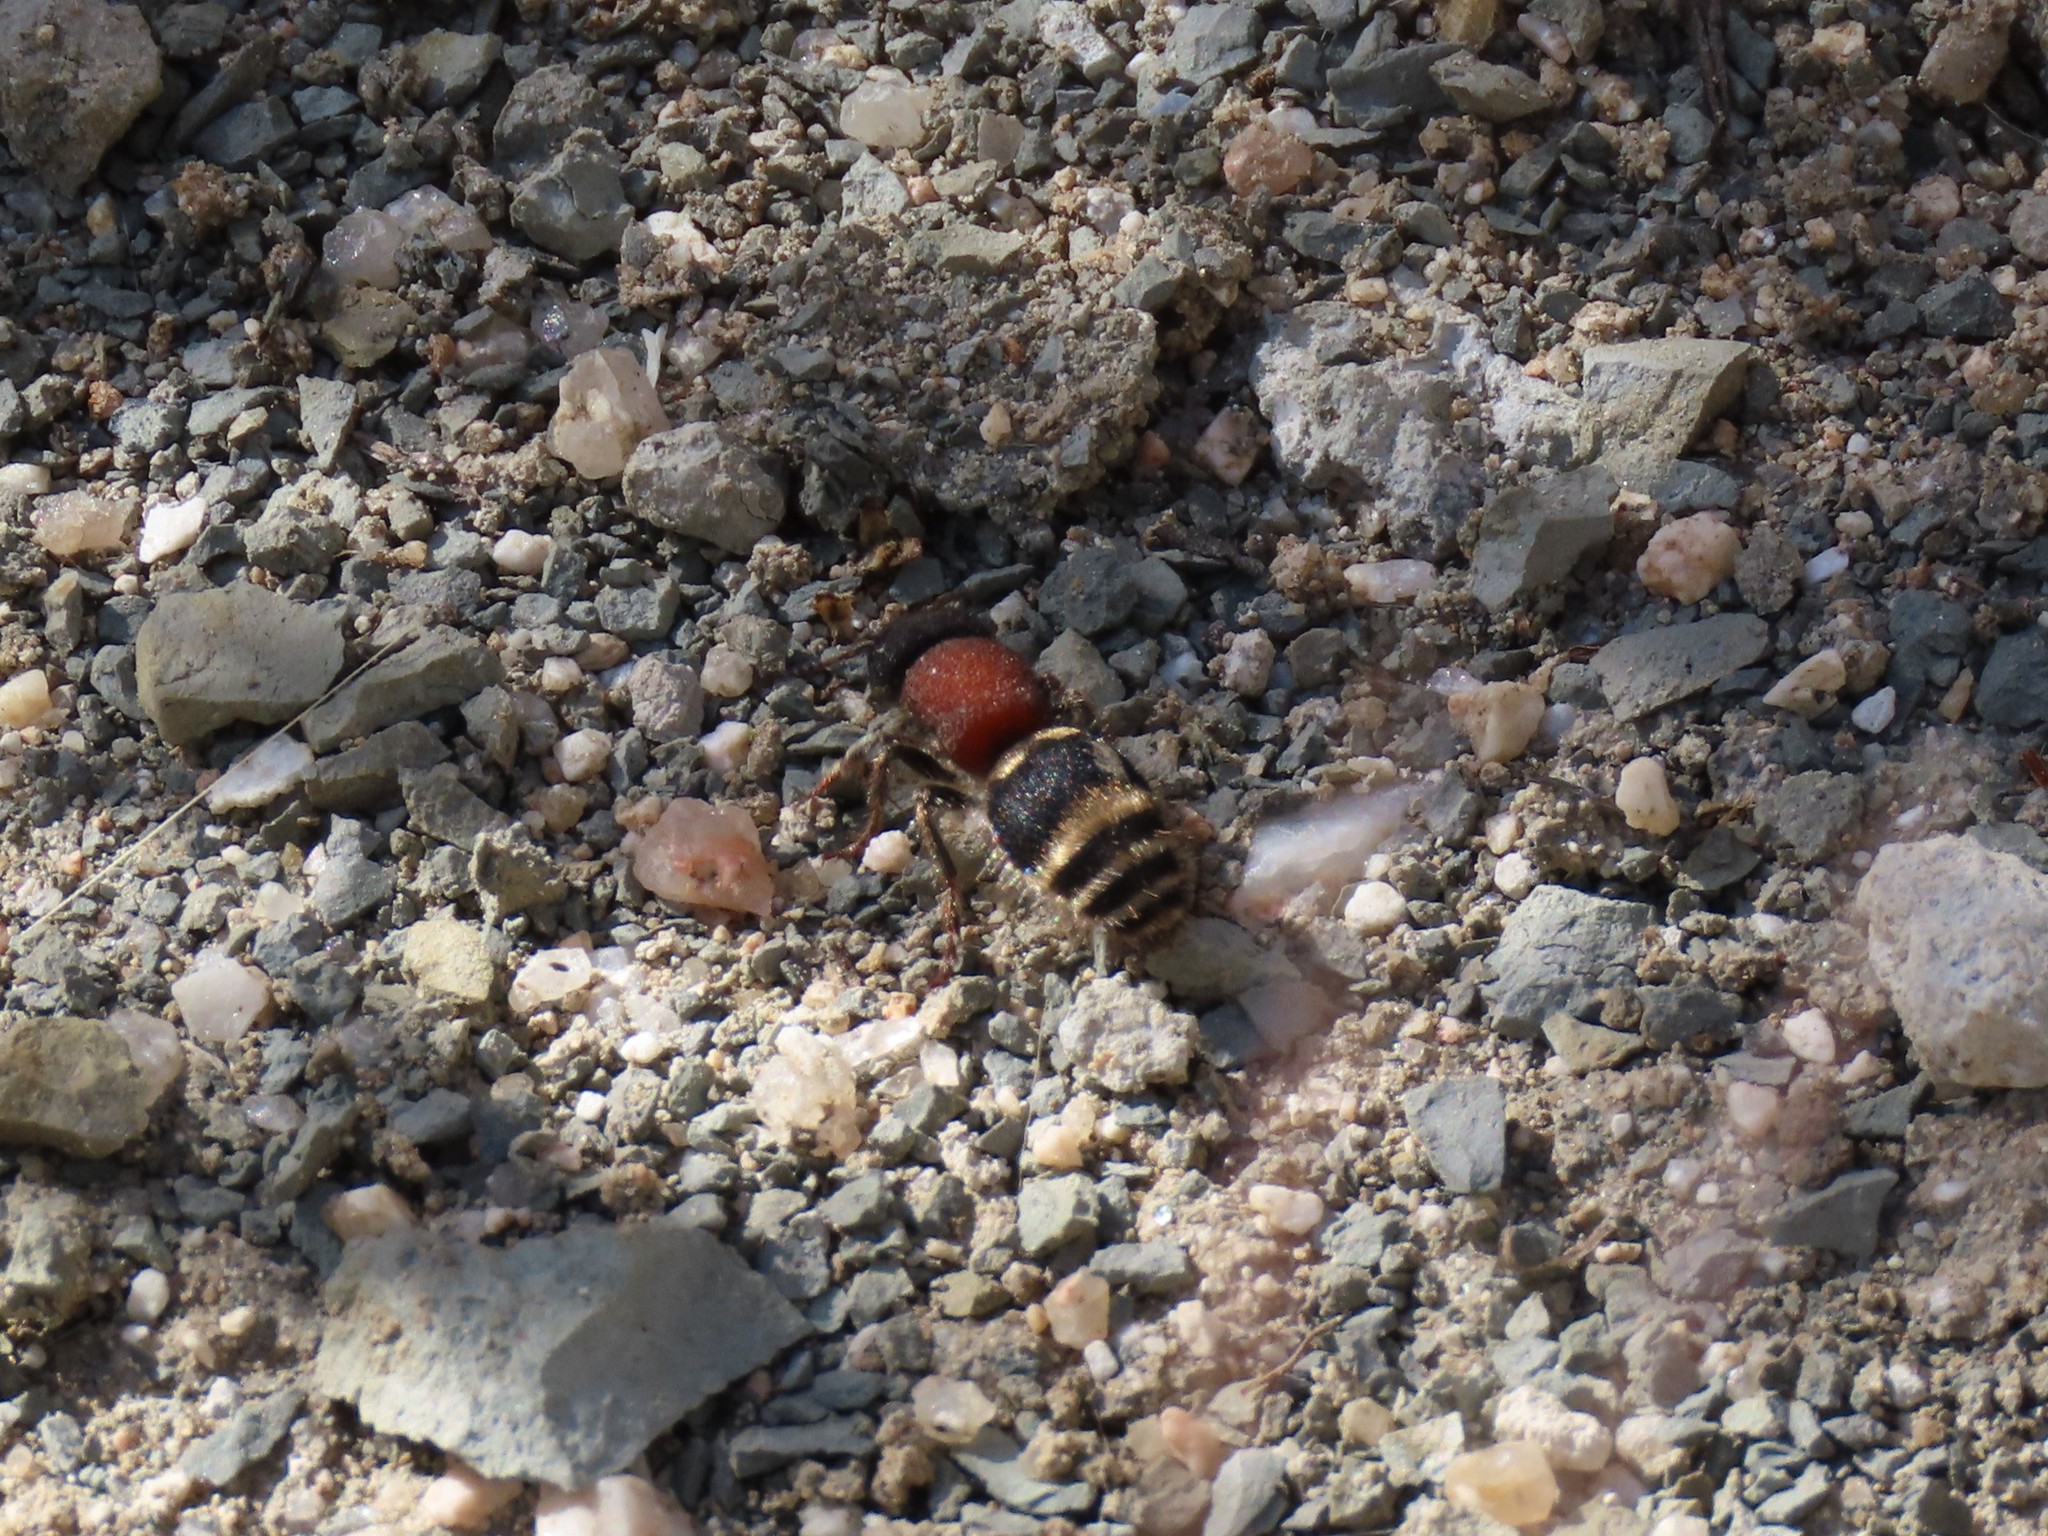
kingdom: Animalia
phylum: Arthropoda
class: Insecta
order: Hymenoptera
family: Mutillidae
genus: Tropidotilla
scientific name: Tropidotilla litoralis
